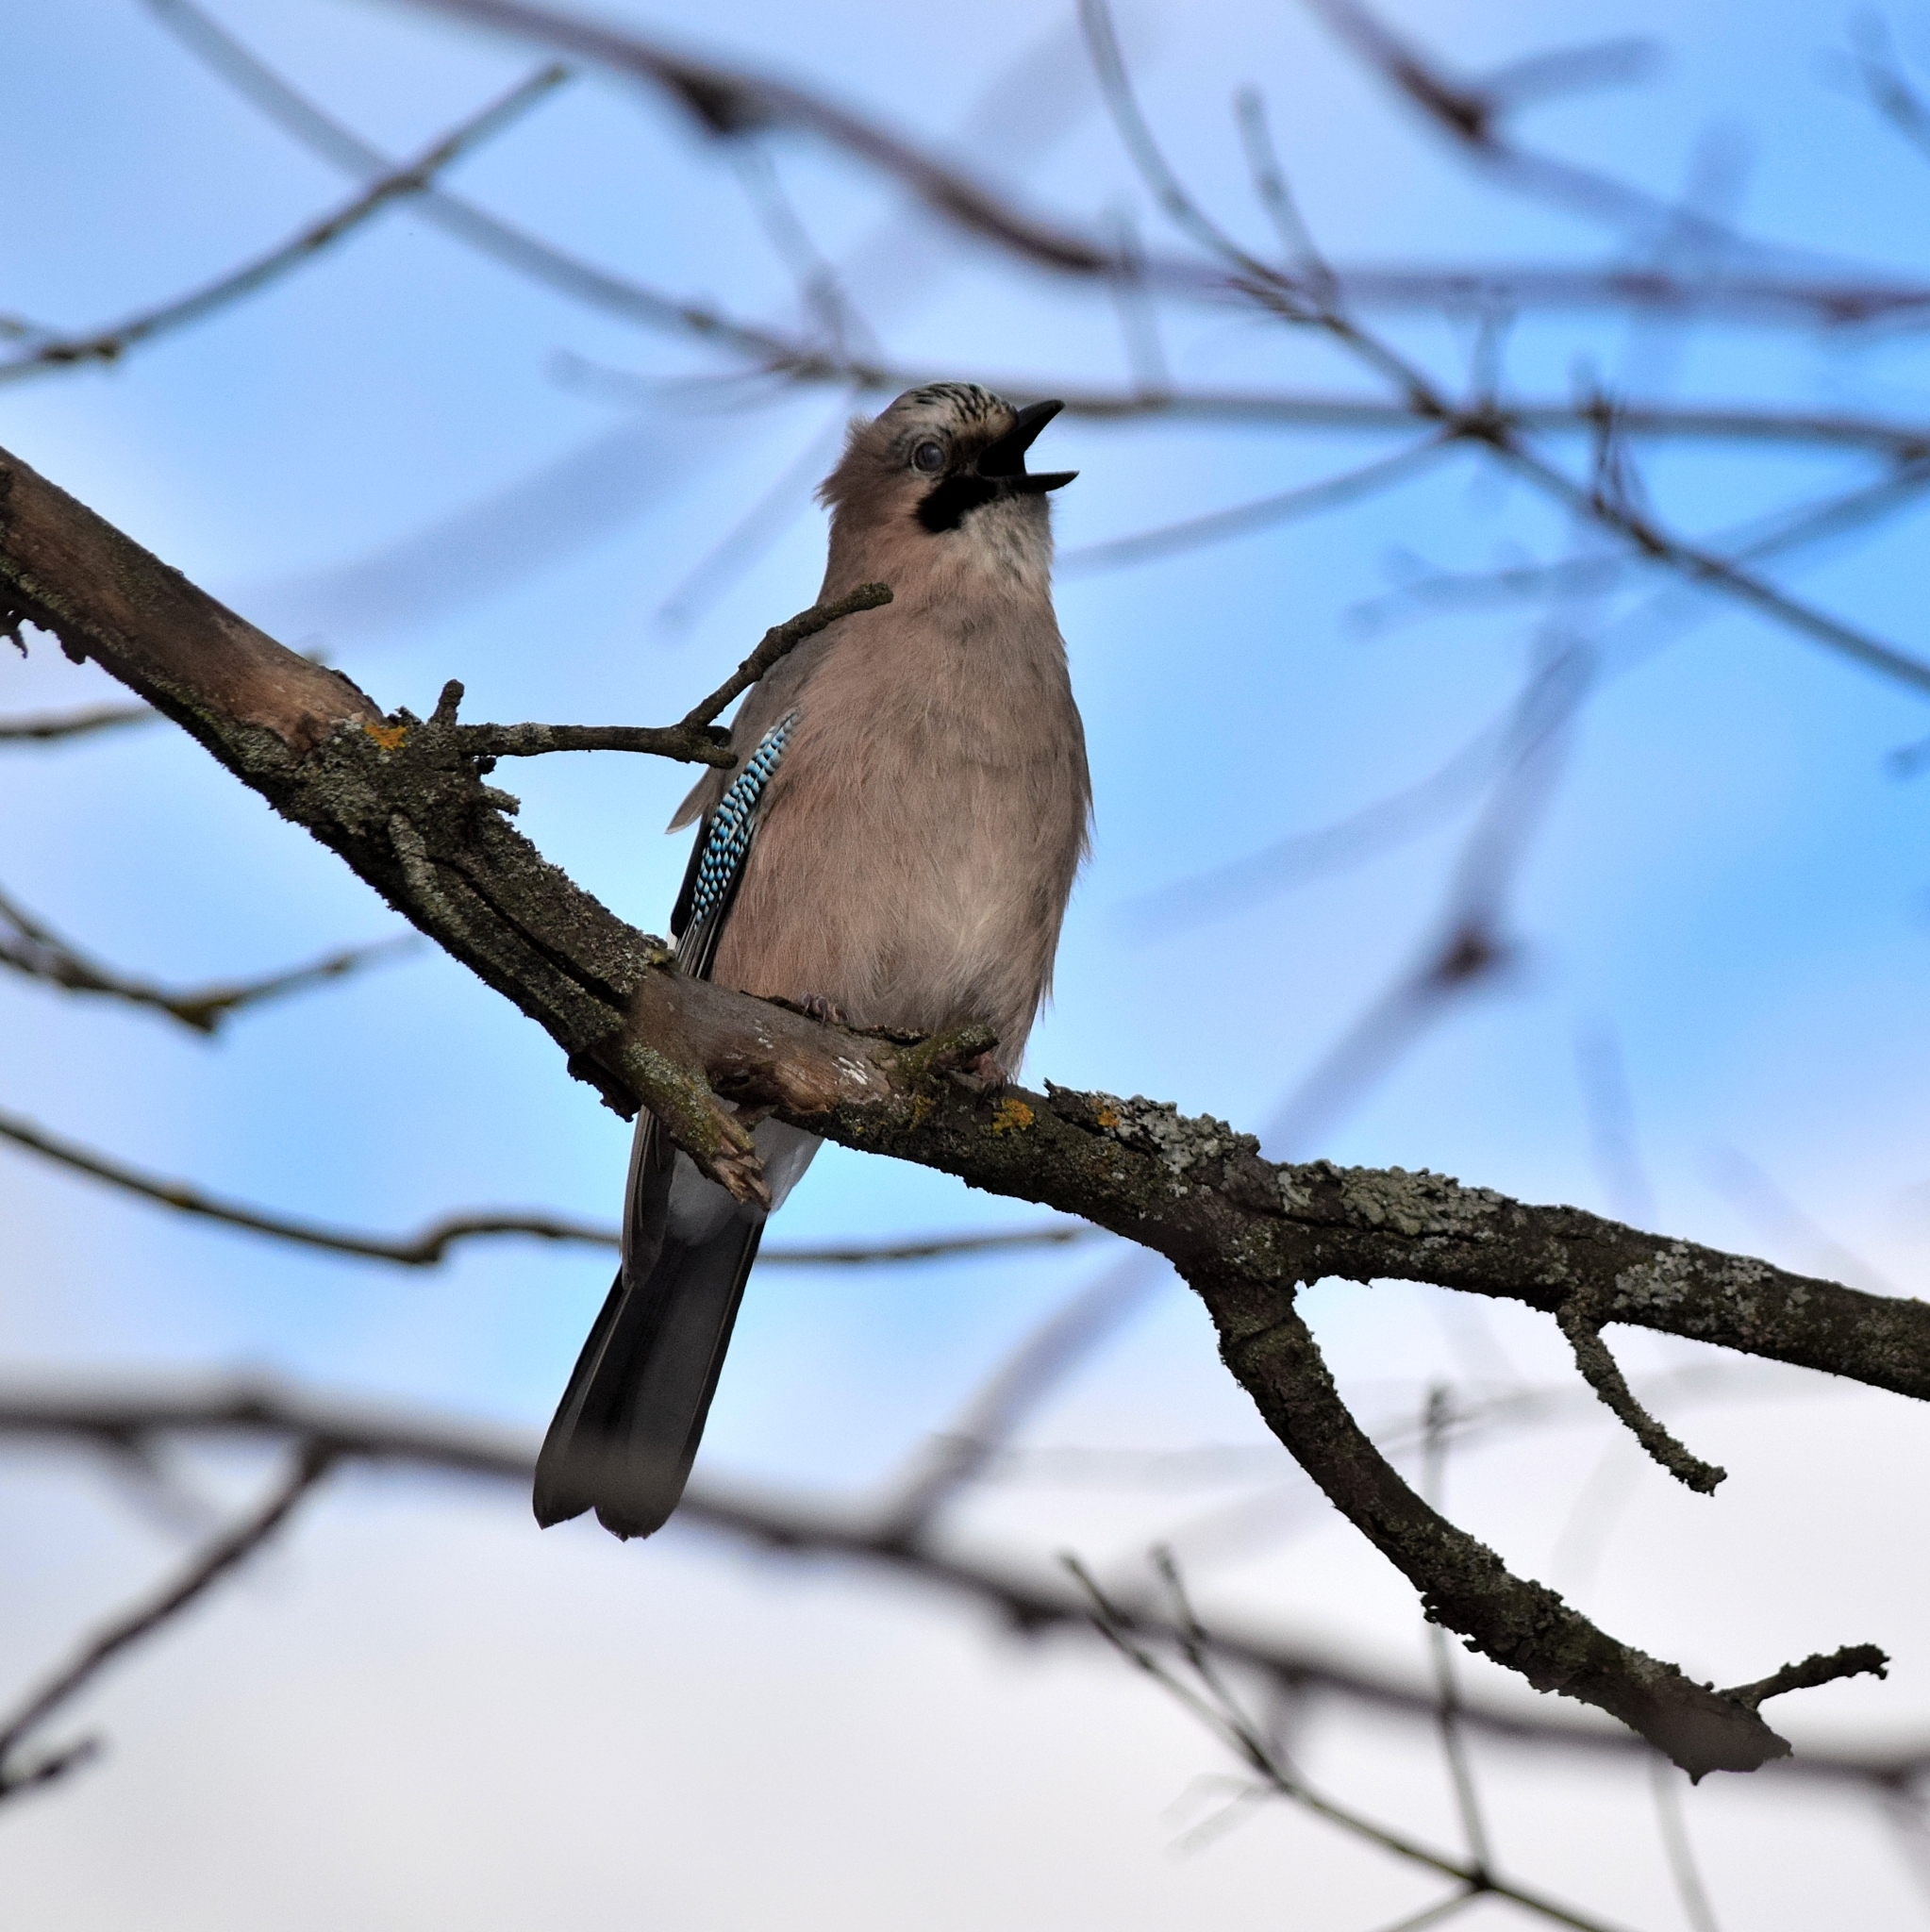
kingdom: Animalia
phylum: Chordata
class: Aves
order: Passeriformes
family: Corvidae
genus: Garrulus
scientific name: Garrulus glandarius
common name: Eurasian jay
